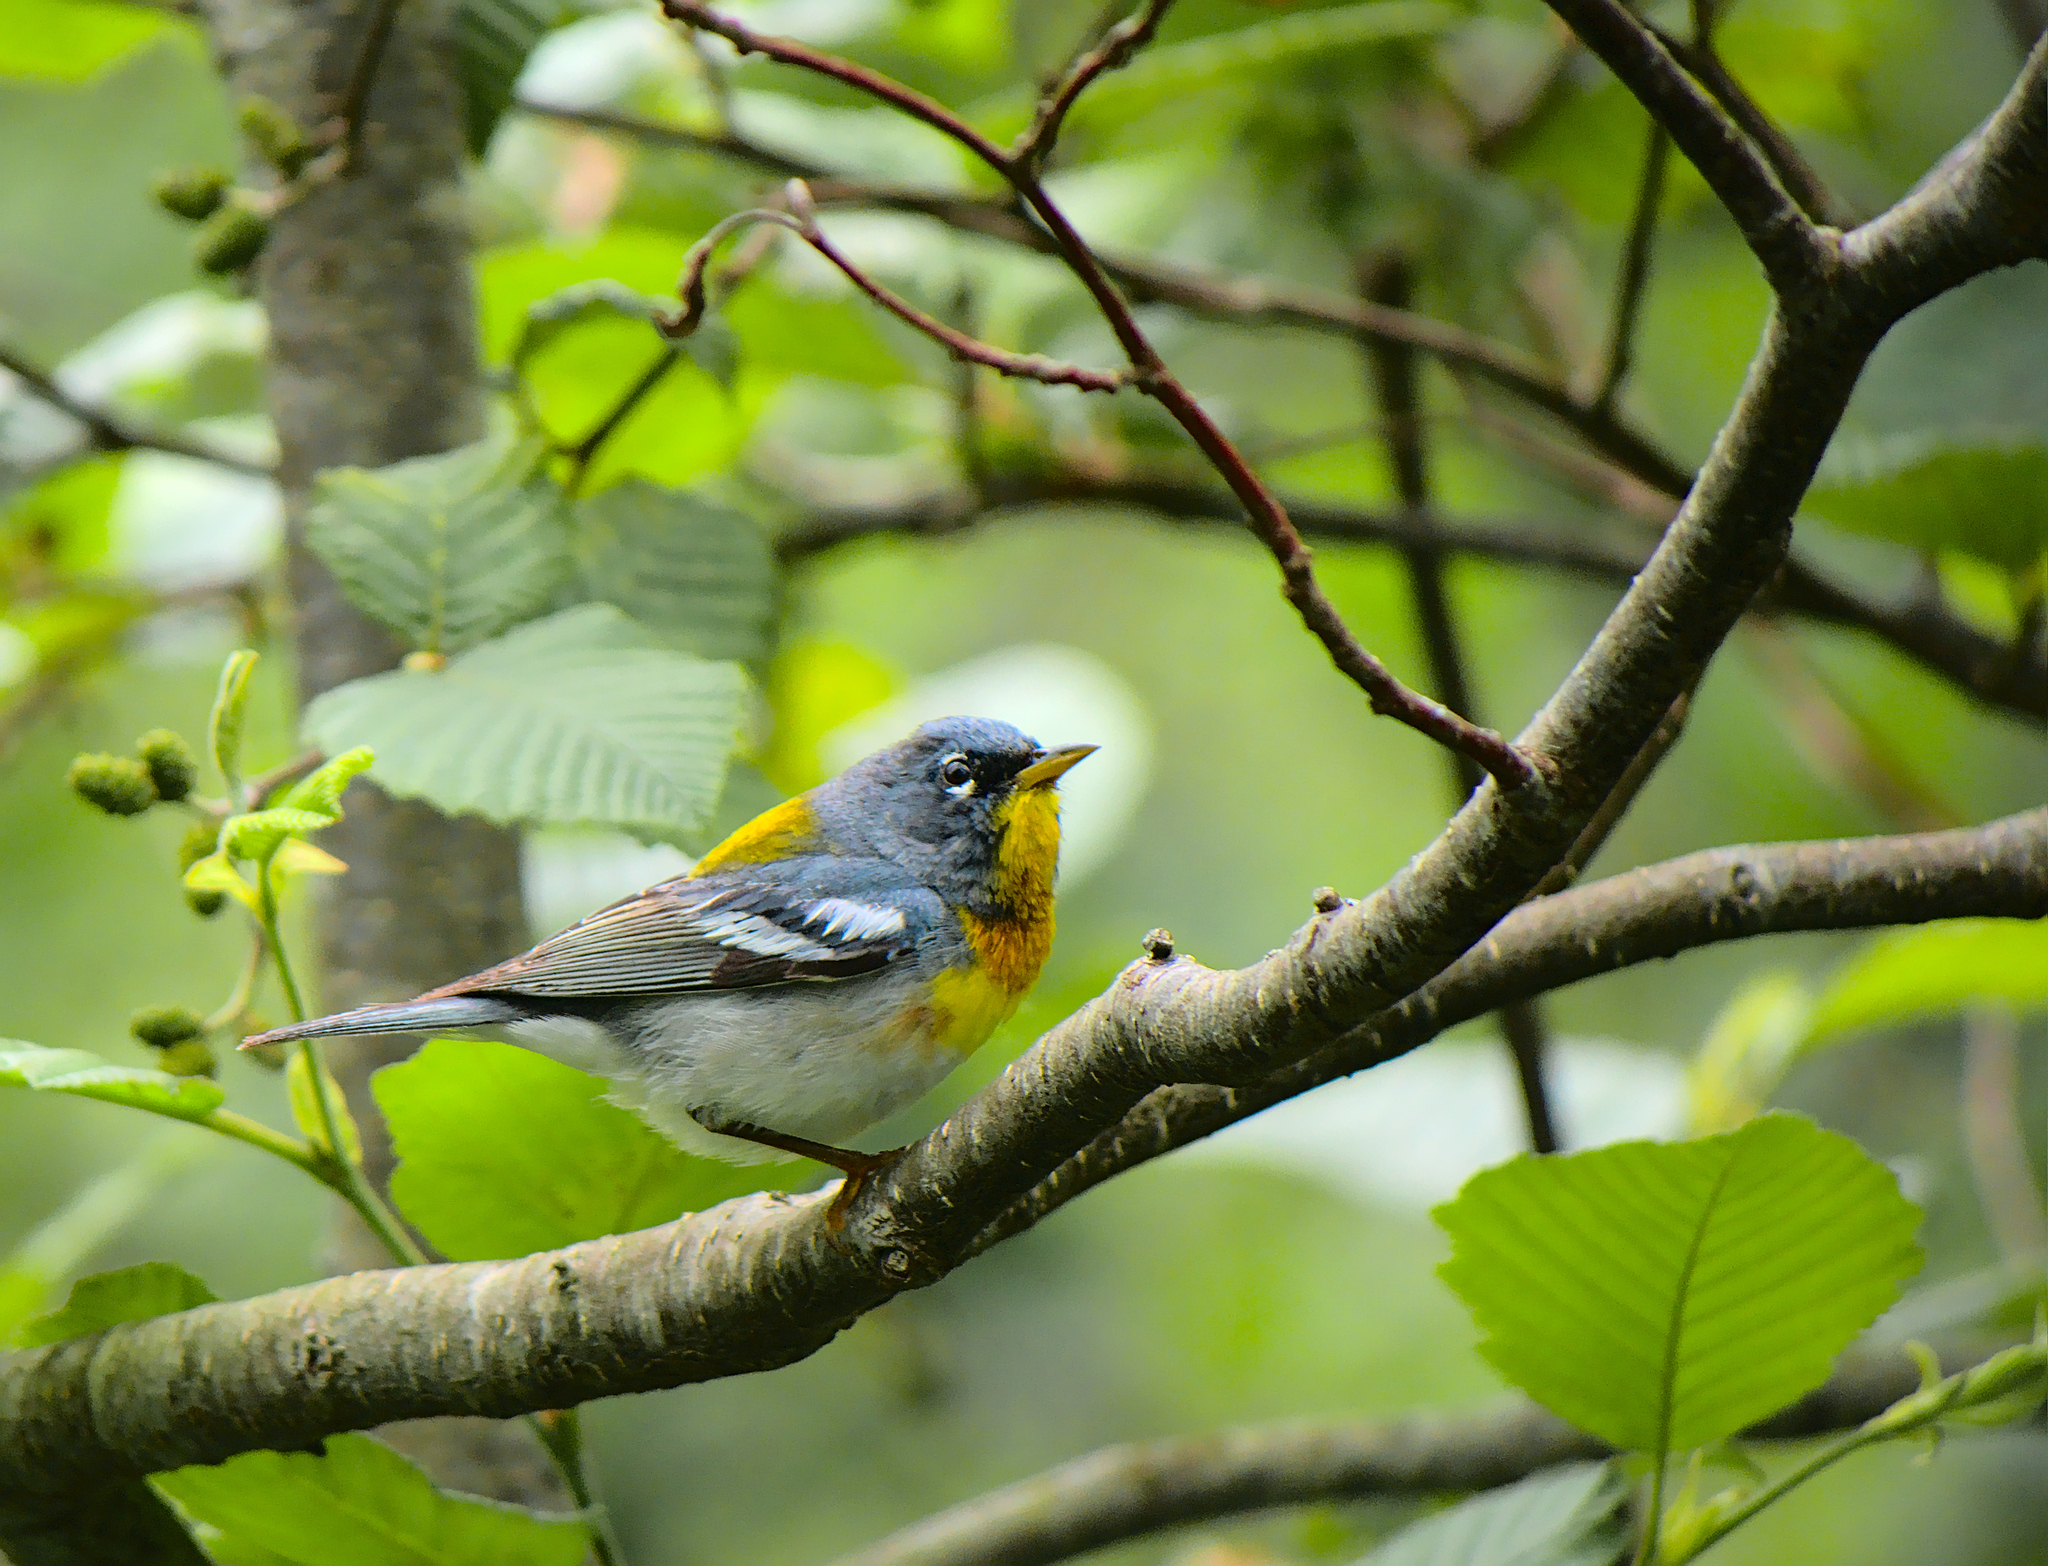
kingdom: Animalia
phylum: Chordata
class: Aves
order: Passeriformes
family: Parulidae
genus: Setophaga
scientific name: Setophaga americana
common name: Northern parula
